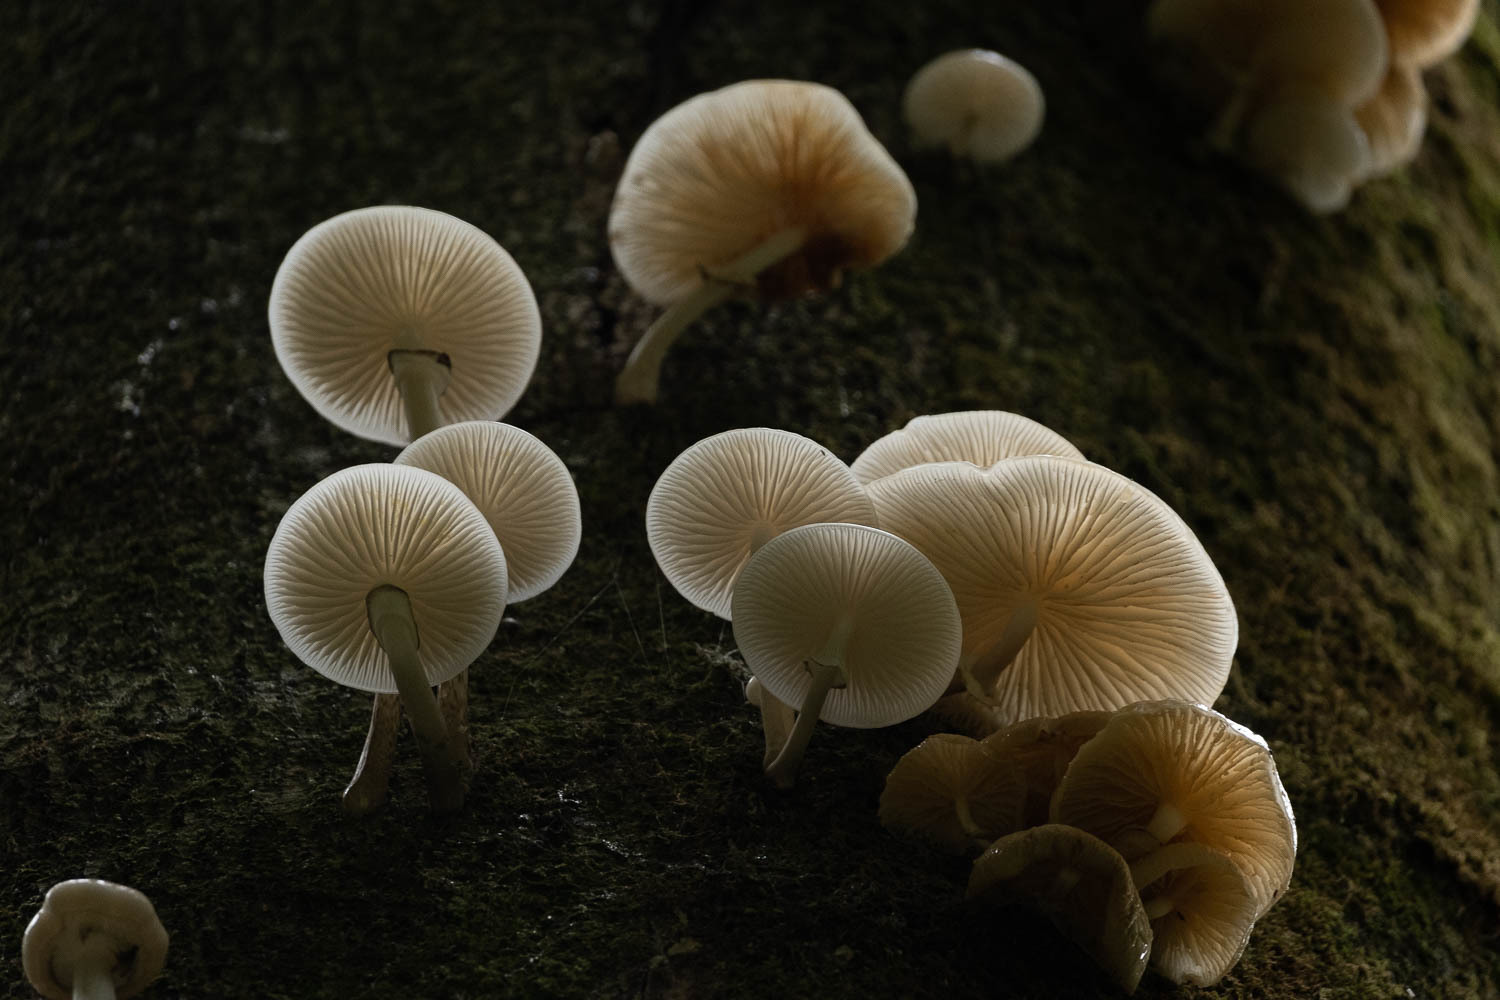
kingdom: Fungi
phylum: Basidiomycota
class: Agaricomycetes
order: Agaricales
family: Physalacriaceae
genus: Mucidula
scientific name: Mucidula mucida
